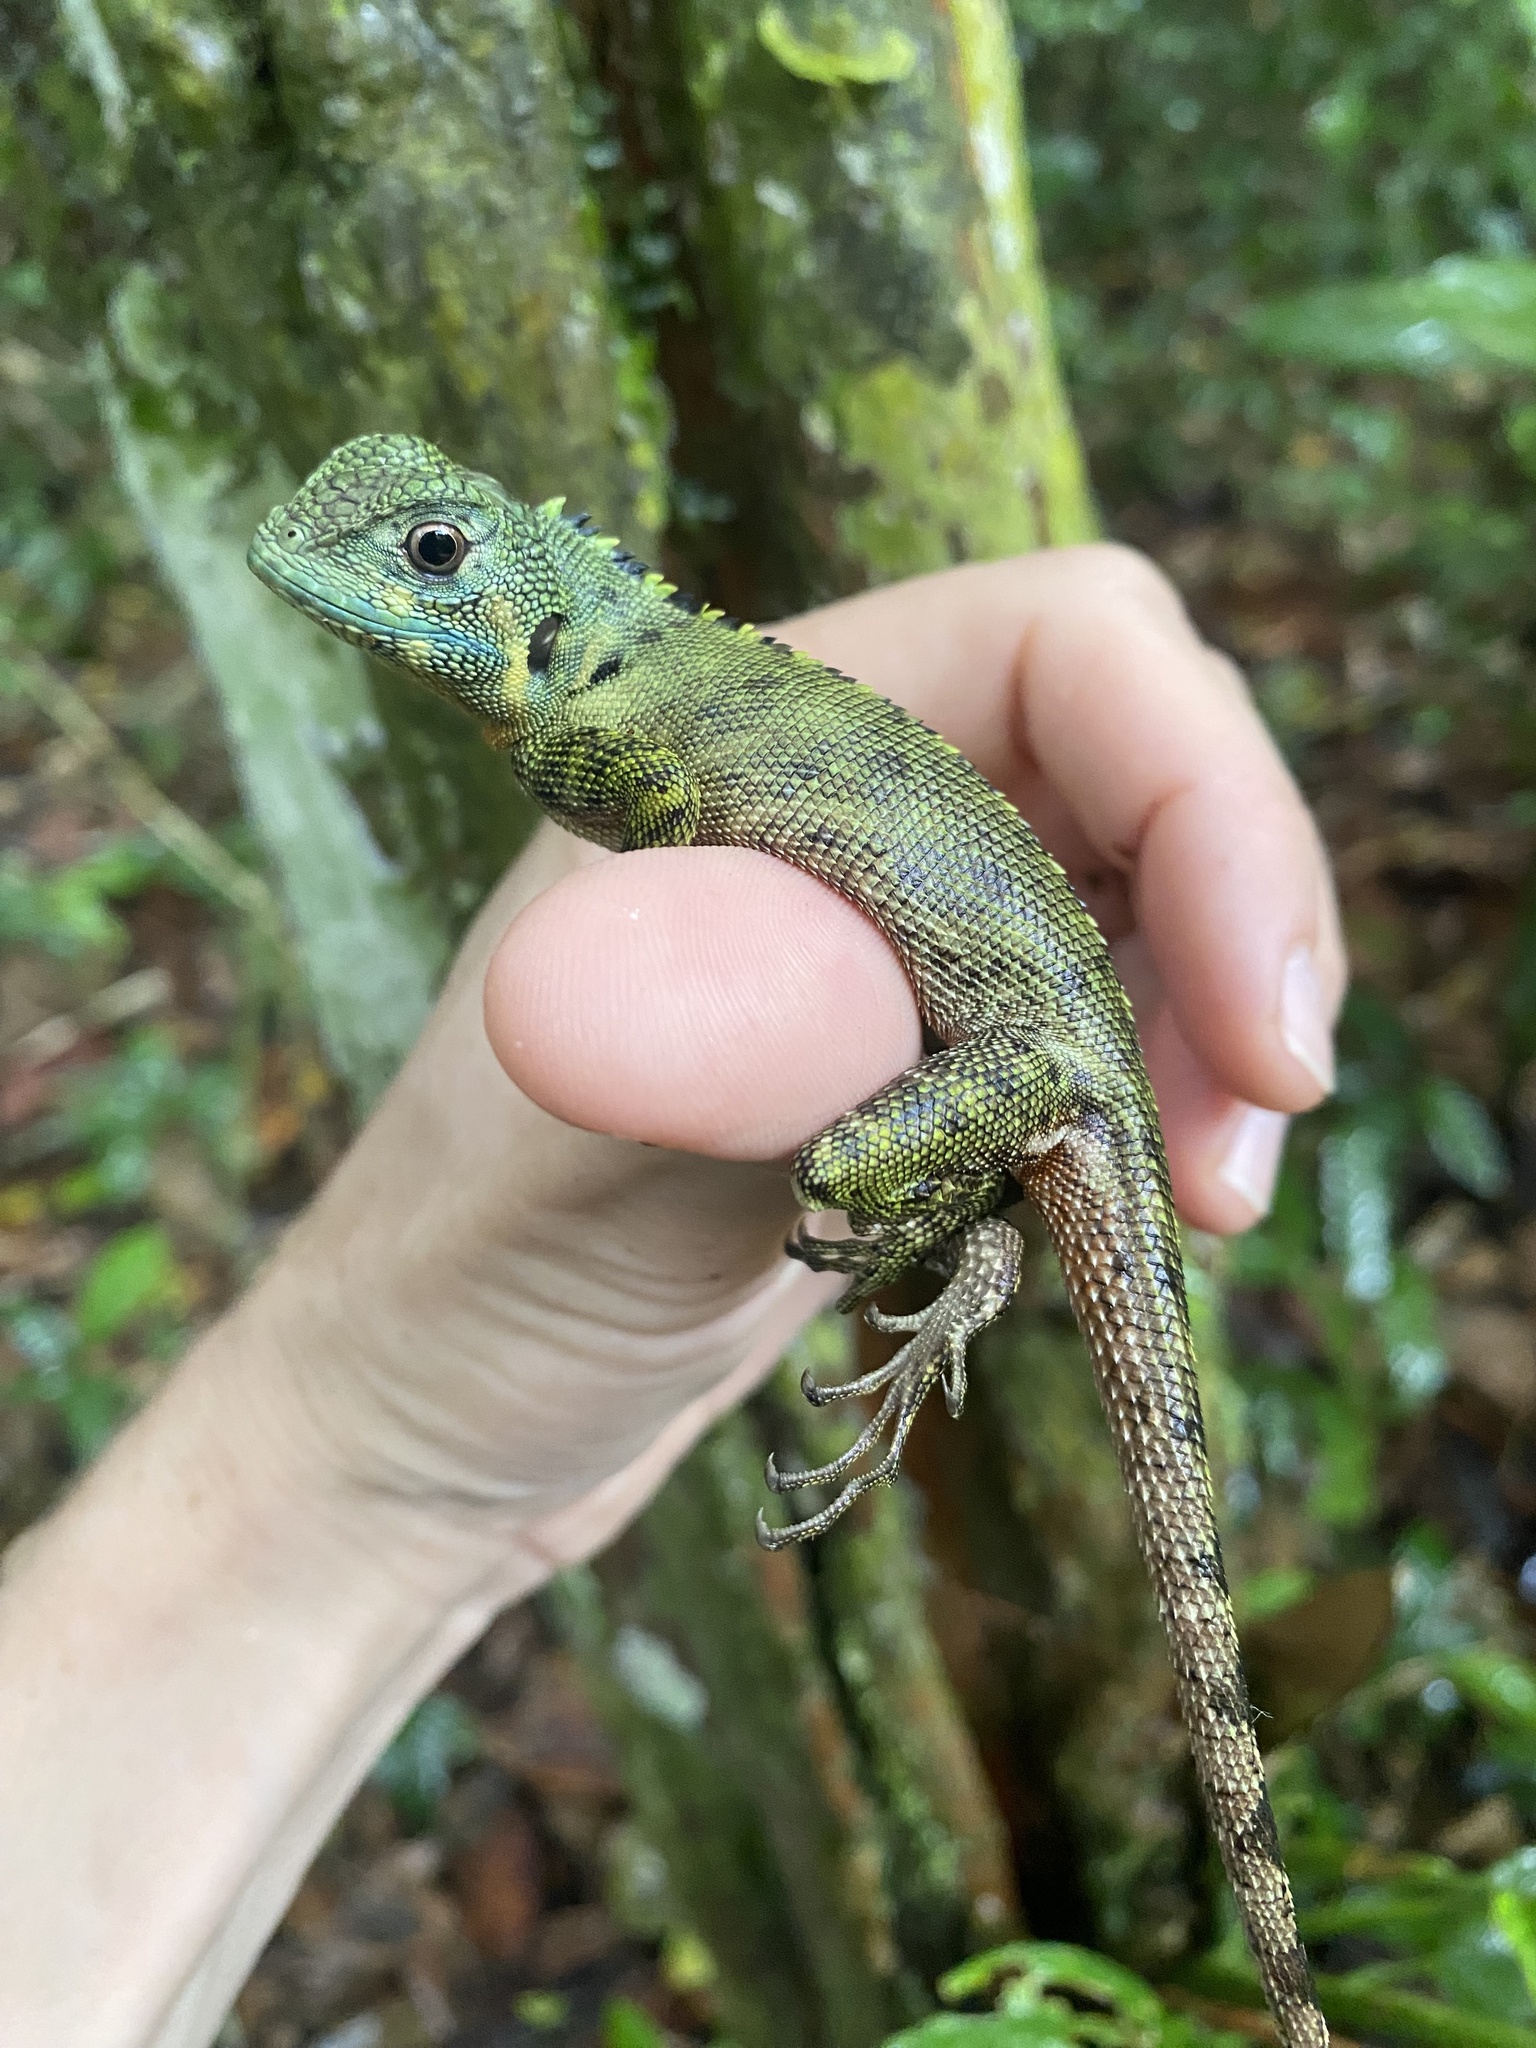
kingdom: Animalia
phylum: Chordata
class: Squamata
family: Tropiduridae
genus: Plica
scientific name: Plica umbra
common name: Harlequin racerunner
